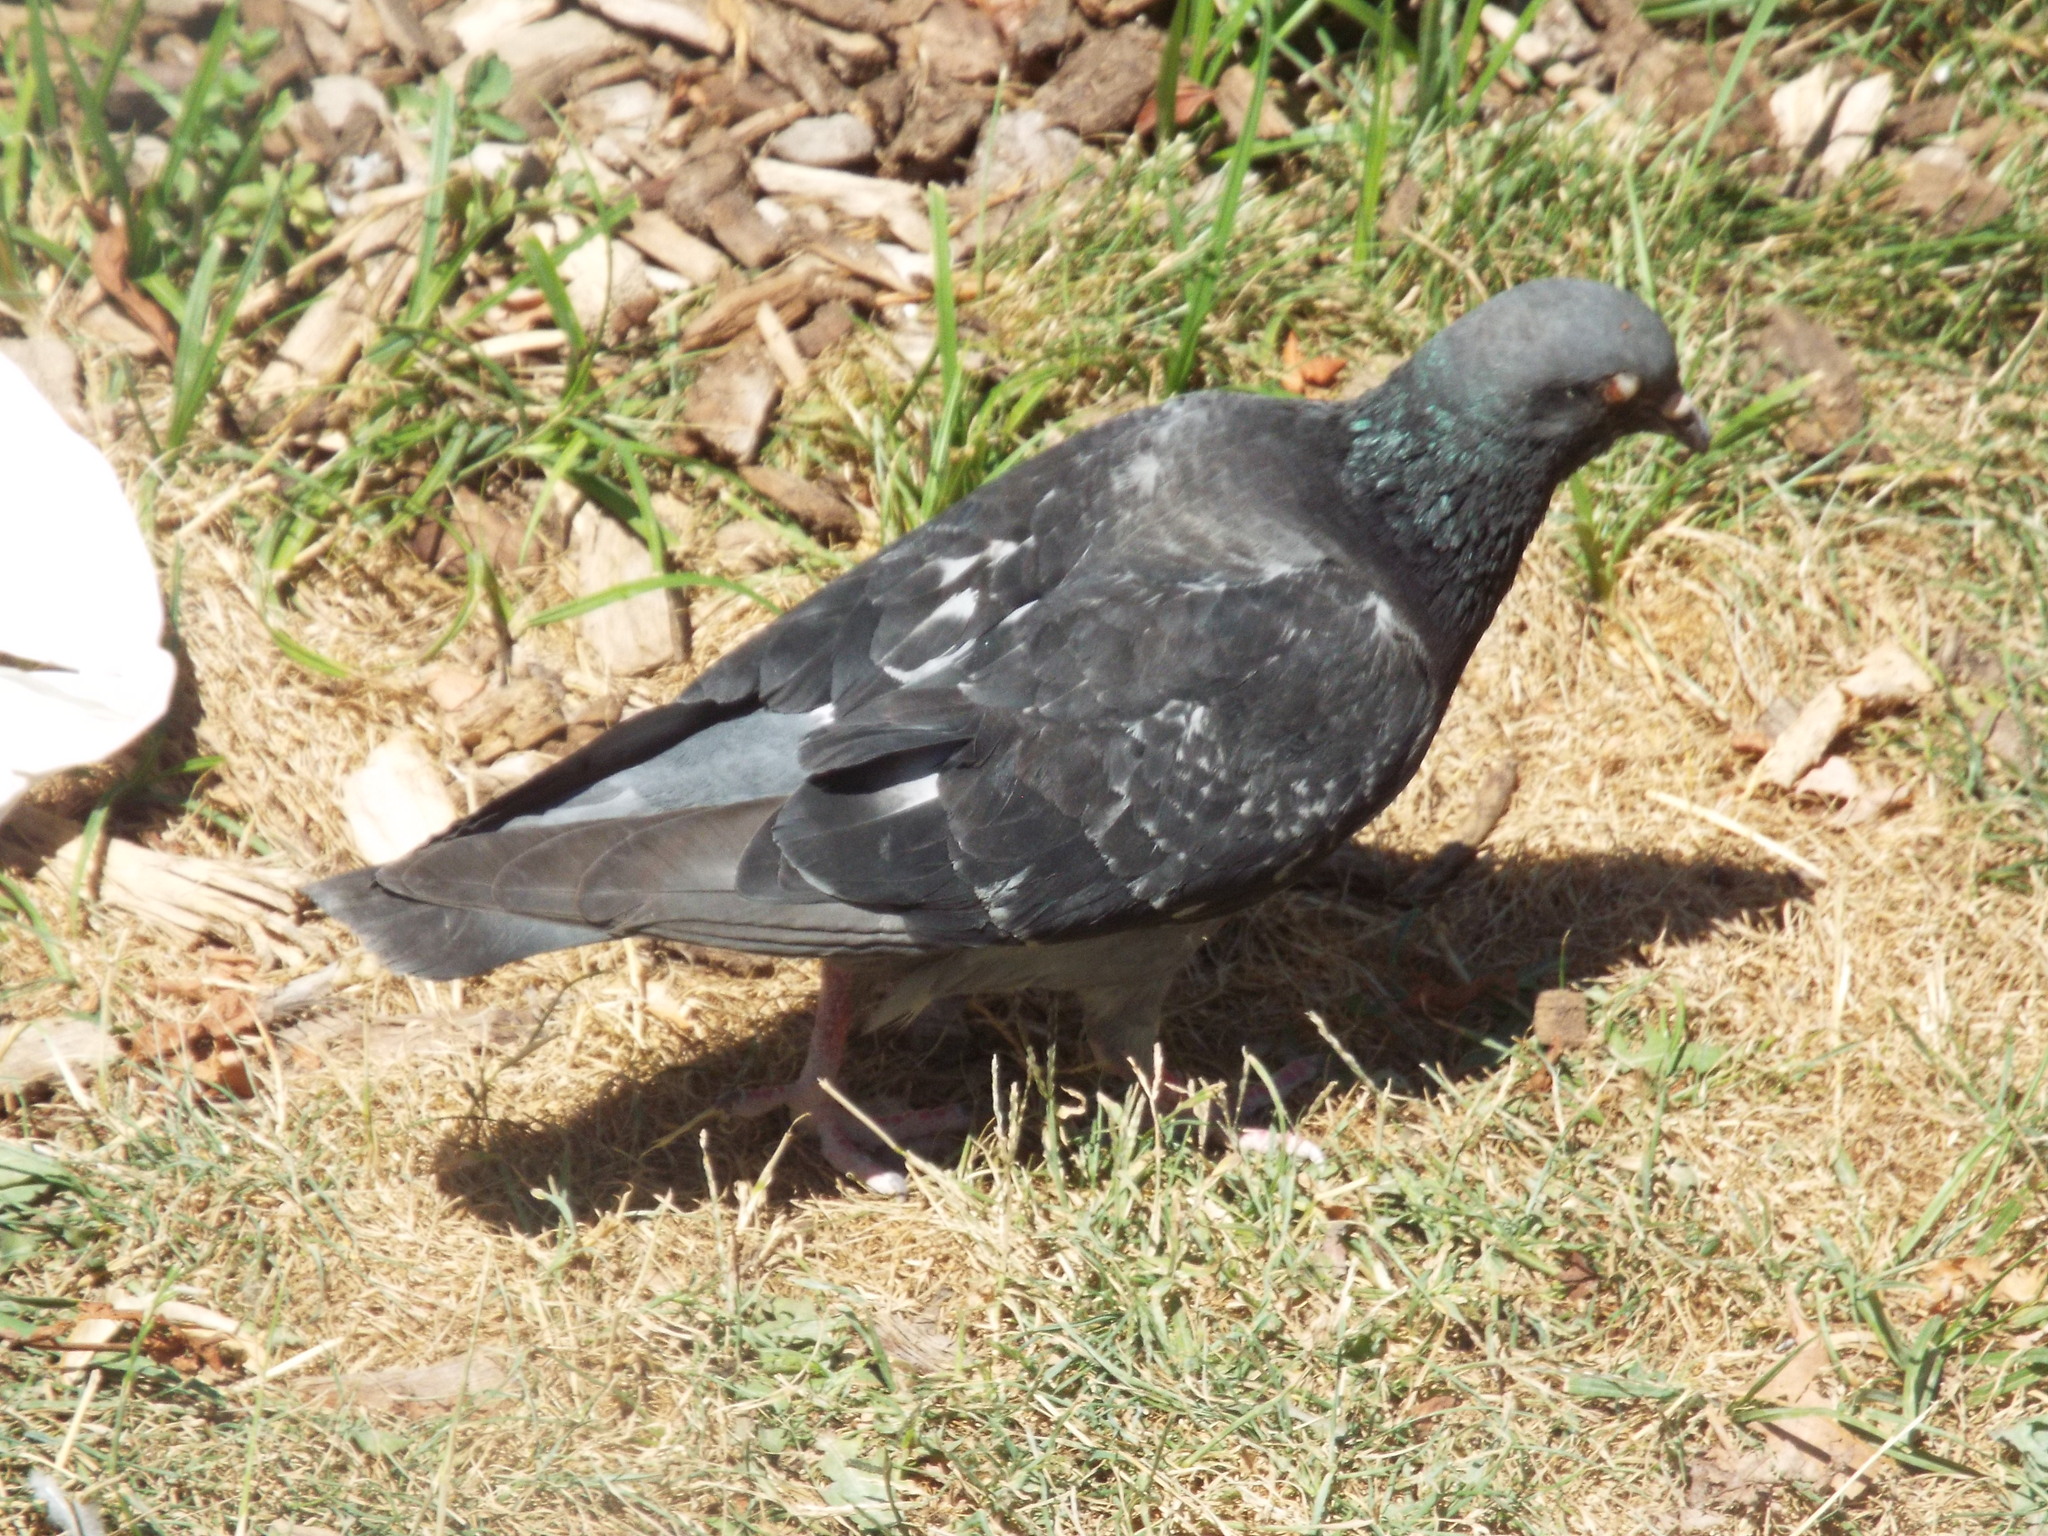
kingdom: Animalia
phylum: Chordata
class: Aves
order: Columbiformes
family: Columbidae
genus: Columba
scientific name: Columba livia
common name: Rock pigeon
